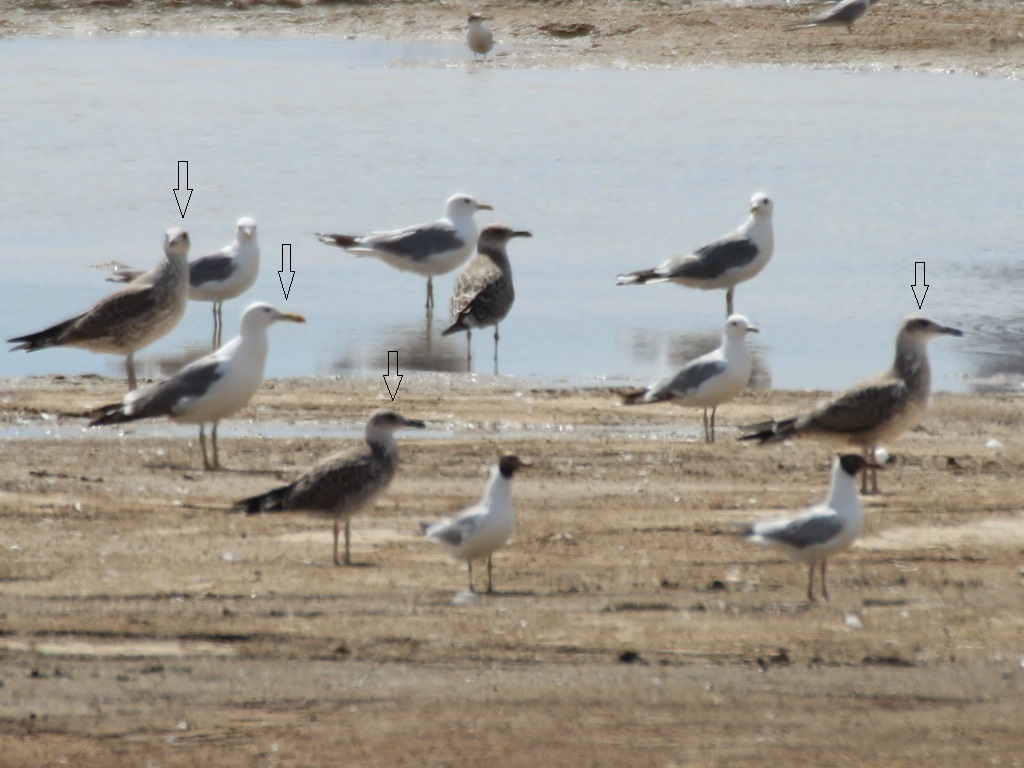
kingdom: Animalia
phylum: Chordata
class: Aves
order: Charadriiformes
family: Laridae
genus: Larus
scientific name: Larus fuscus
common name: Lesser black-backed gull
